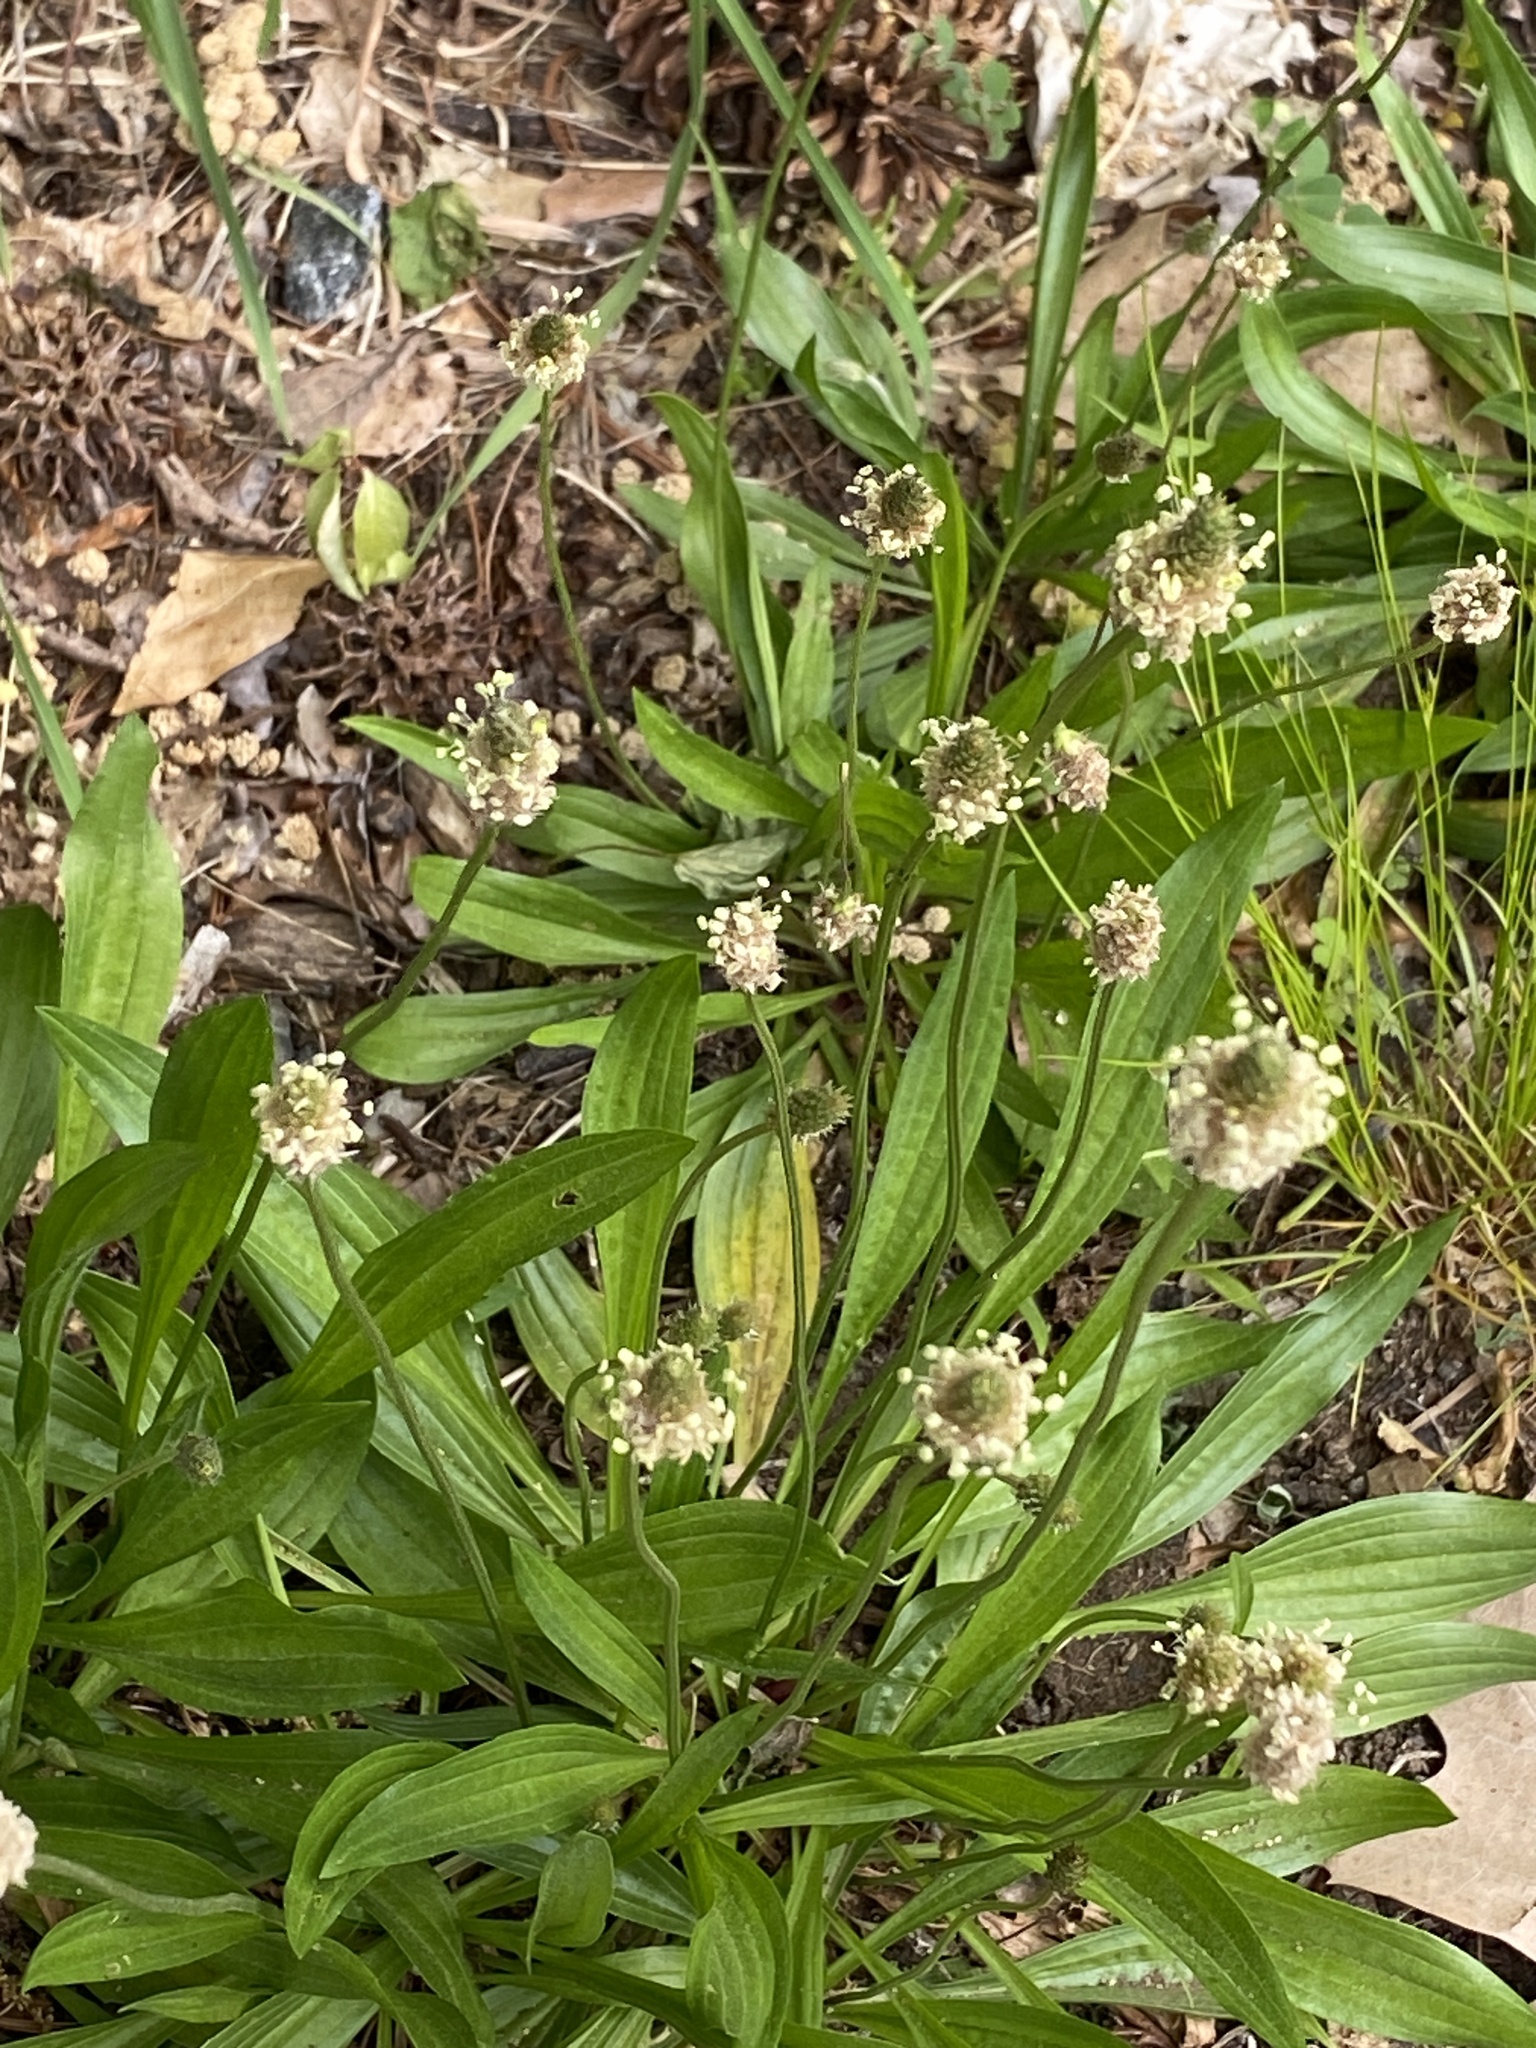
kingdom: Plantae
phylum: Tracheophyta
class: Magnoliopsida
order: Lamiales
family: Plantaginaceae
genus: Plantago
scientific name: Plantago lanceolata
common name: Ribwort plantain
